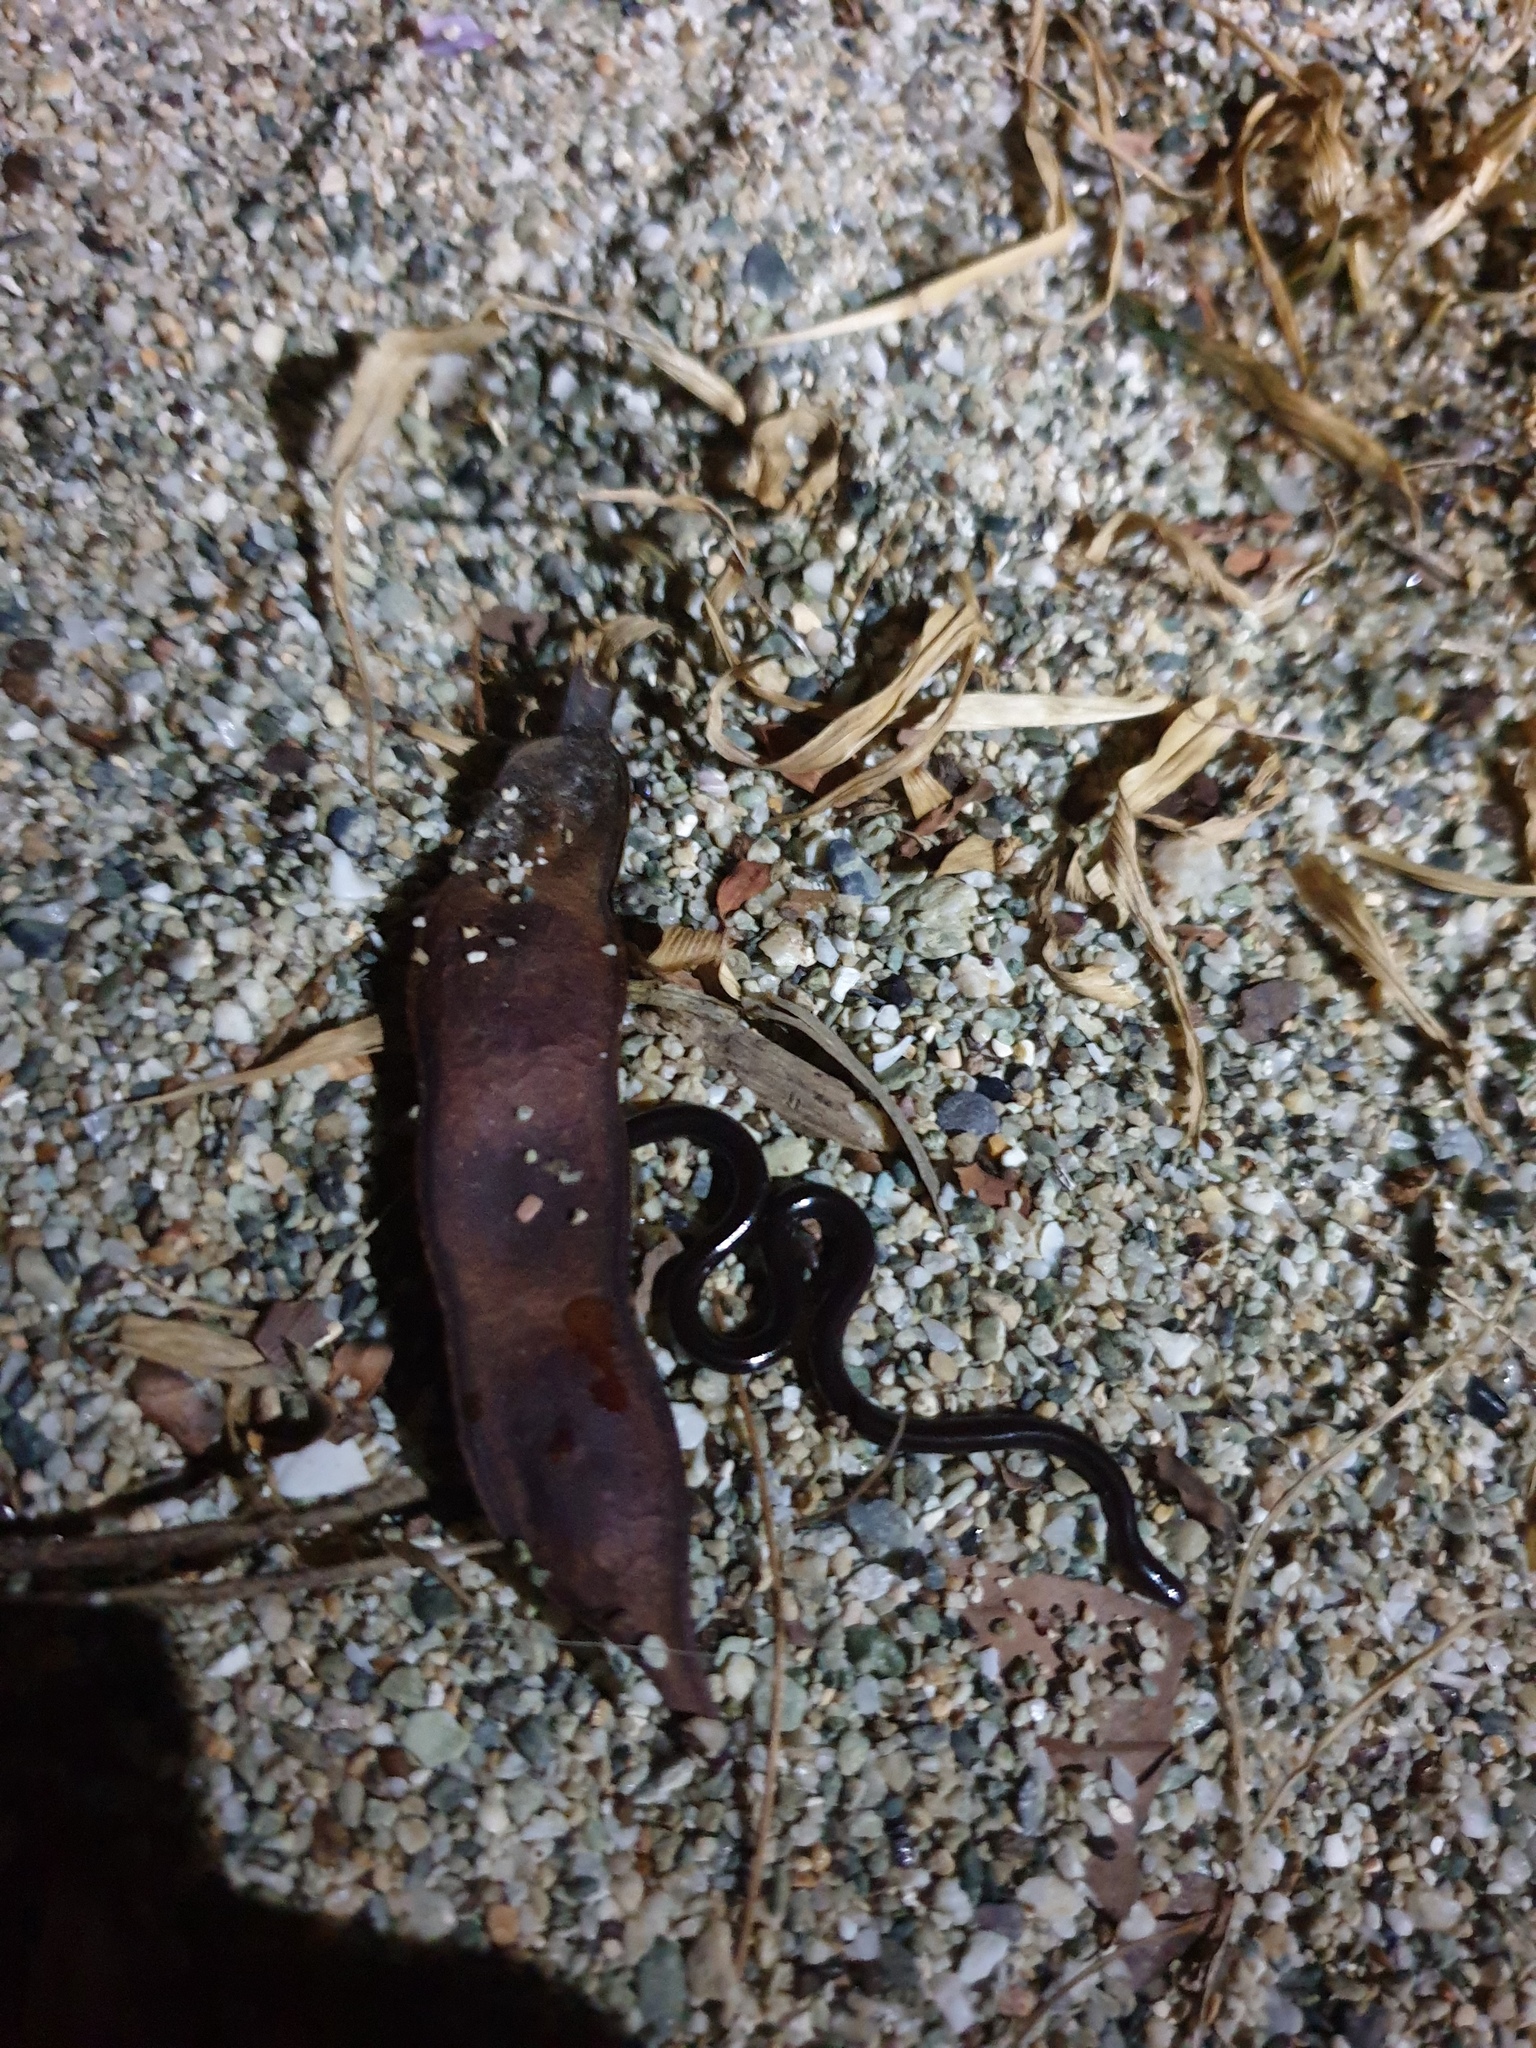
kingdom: Animalia
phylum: Chordata
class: Squamata
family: Typhlopidae
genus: Indotyphlops
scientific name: Indotyphlops braminus
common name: Brahminy blindsnake
